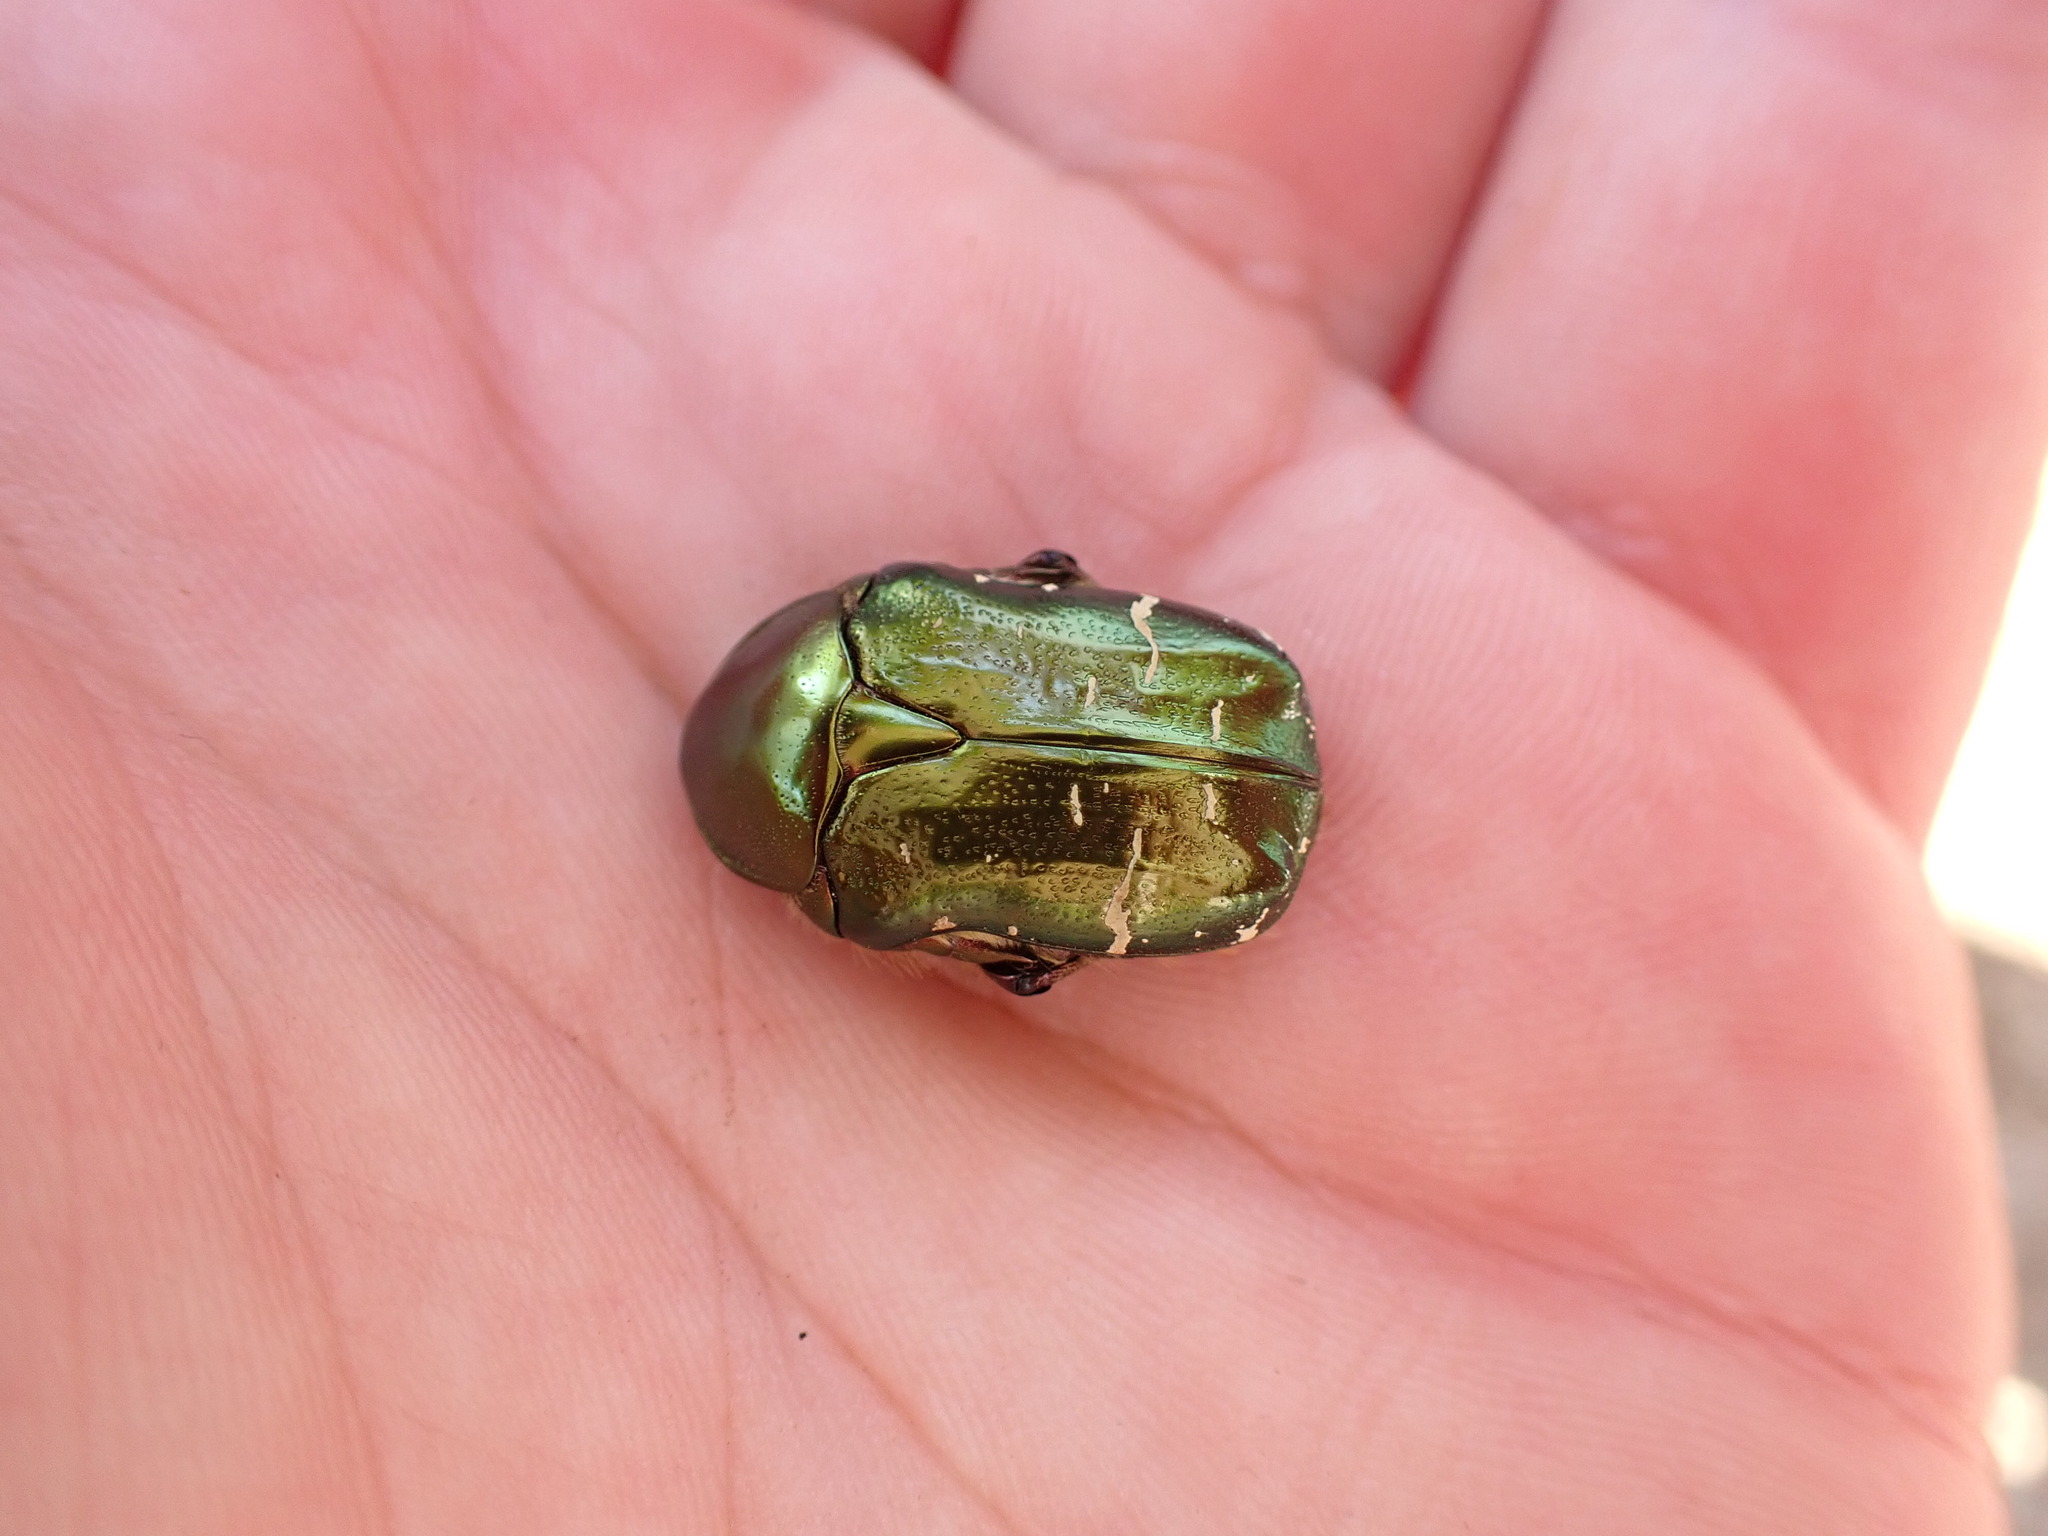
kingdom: Animalia
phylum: Arthropoda
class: Insecta
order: Coleoptera
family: Scarabaeidae
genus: Cetonia
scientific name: Cetonia aurata
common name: Rose chafer
